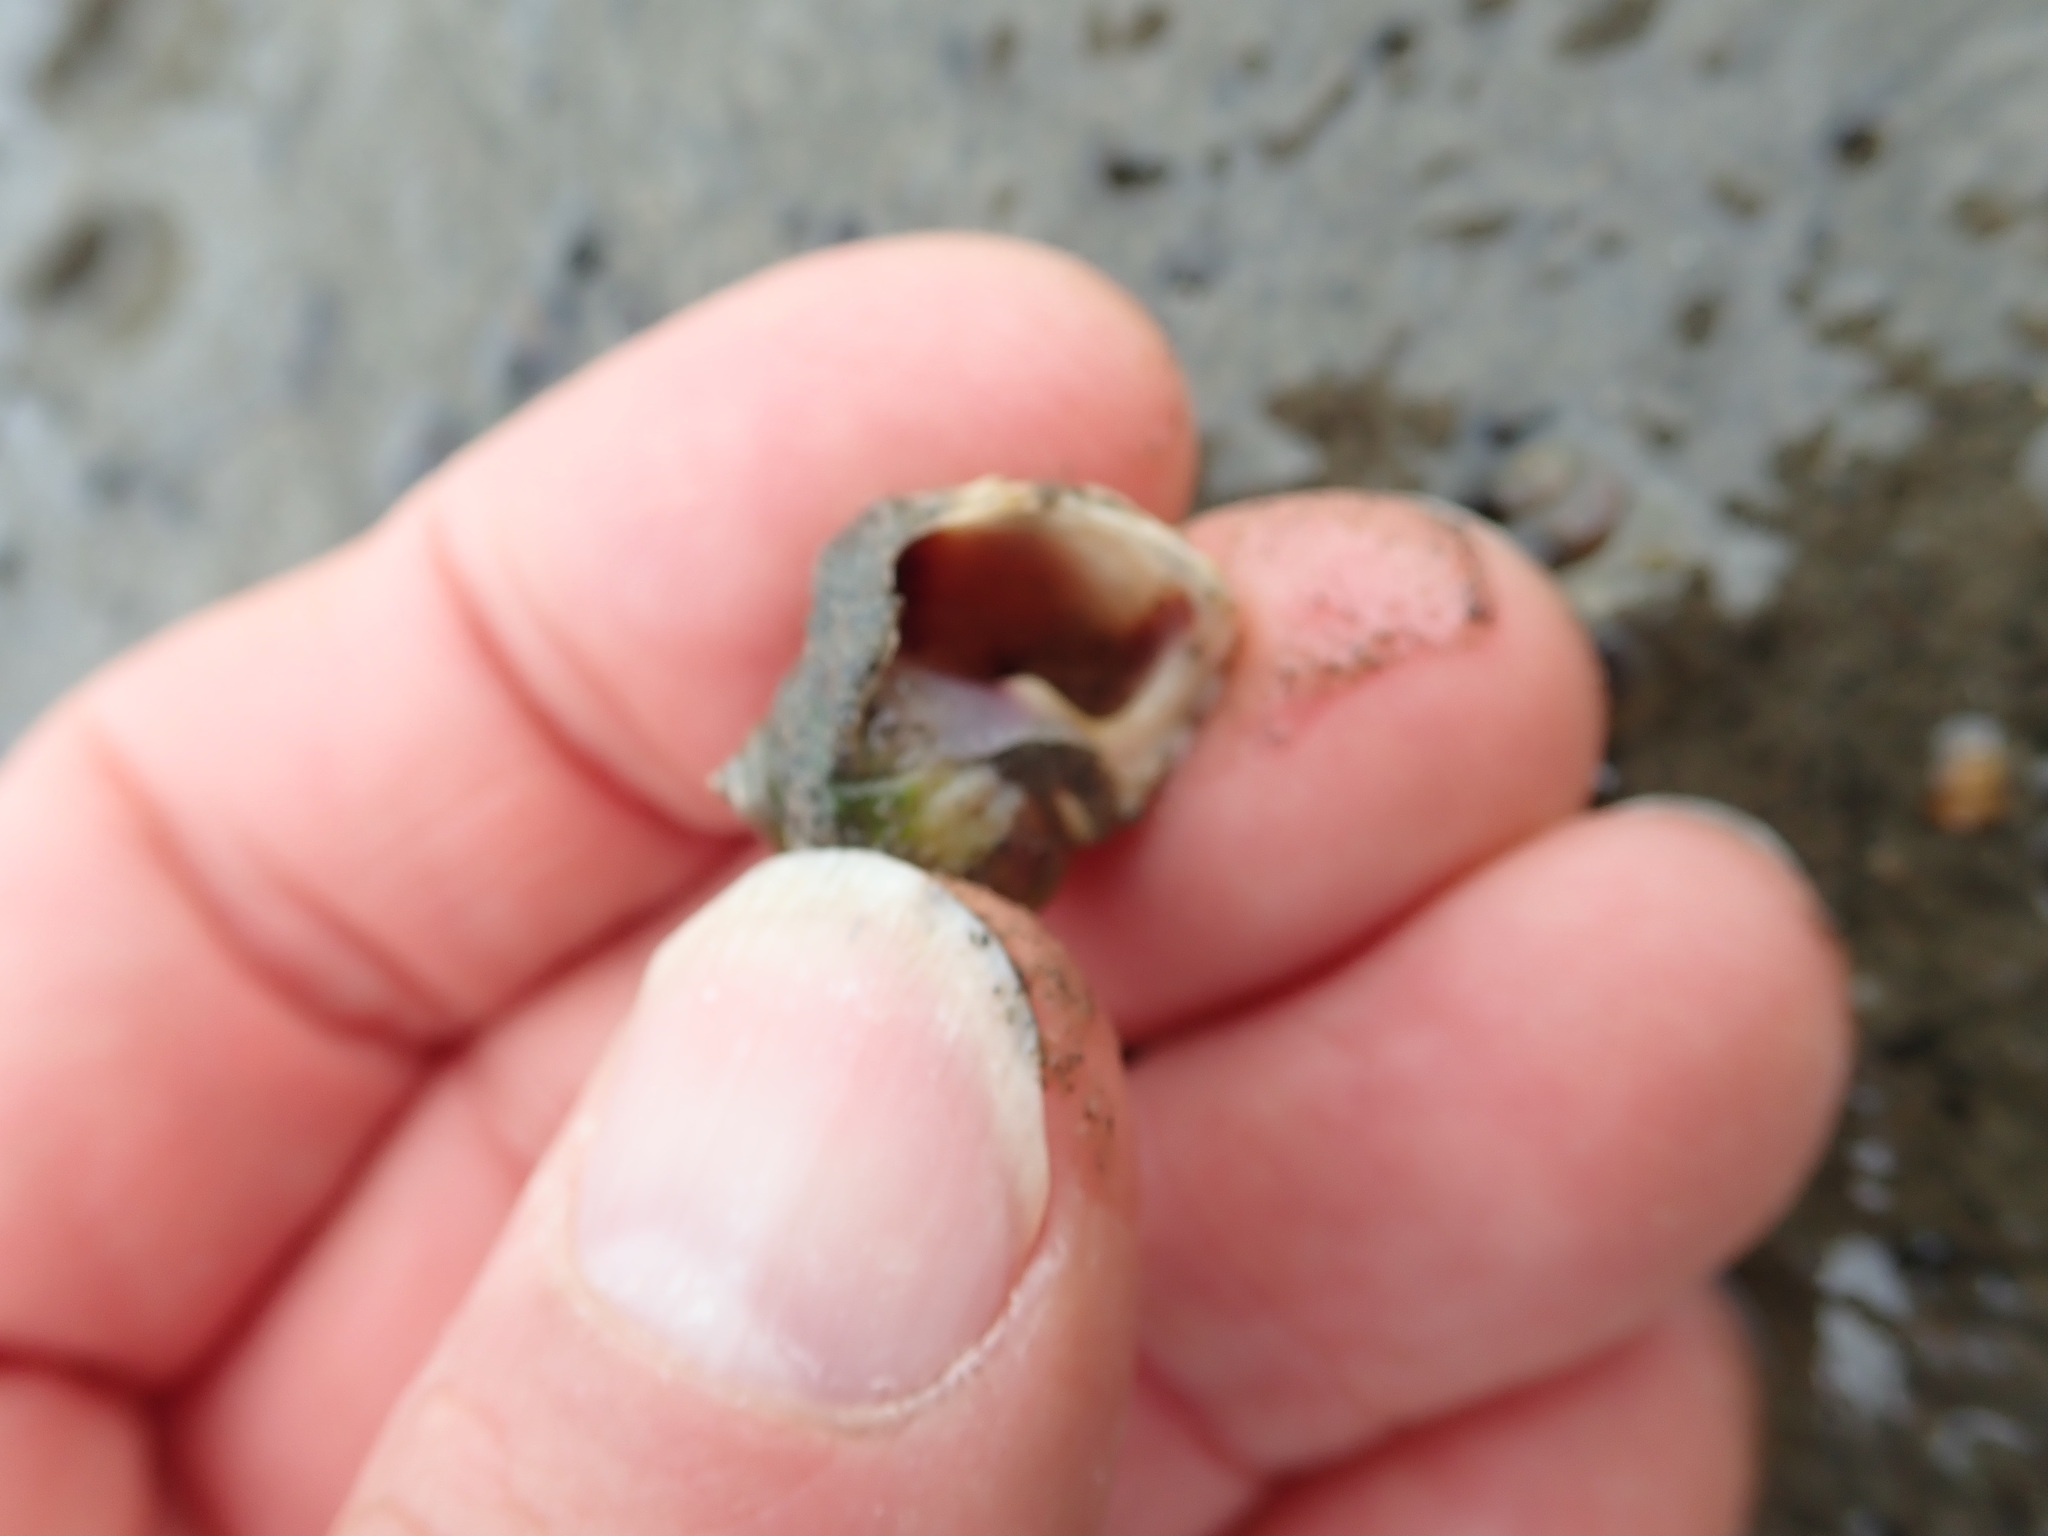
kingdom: Animalia
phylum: Mollusca
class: Gastropoda
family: Amphibolidae
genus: Amphibola
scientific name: Amphibola crenata
